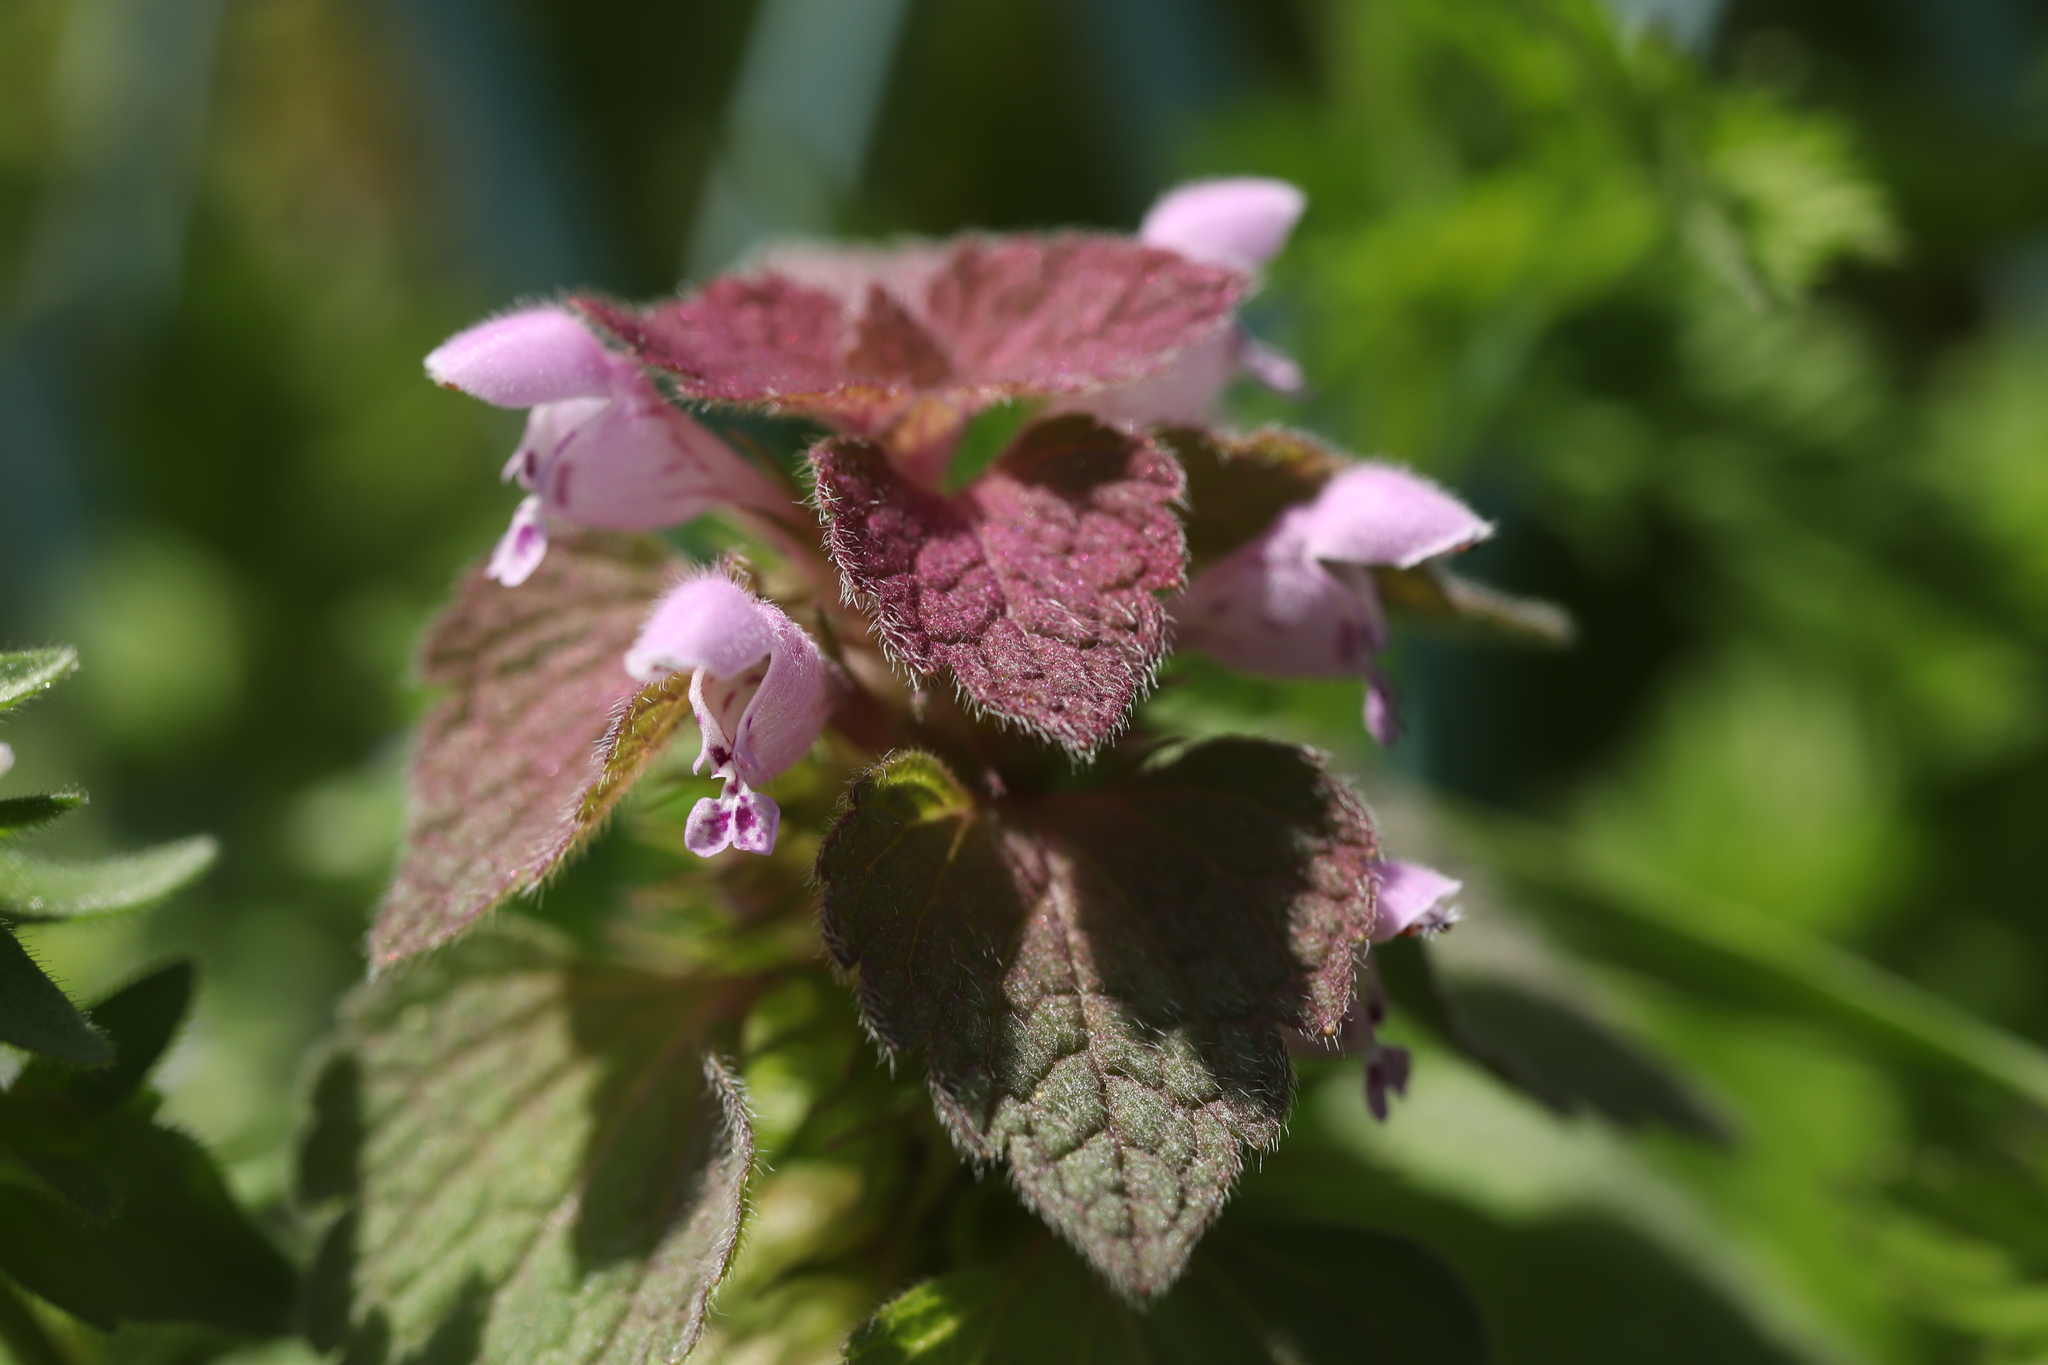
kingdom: Plantae
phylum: Tracheophyta
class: Magnoliopsida
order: Lamiales
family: Lamiaceae
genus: Lamium
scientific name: Lamium purpureum
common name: Red dead-nettle
